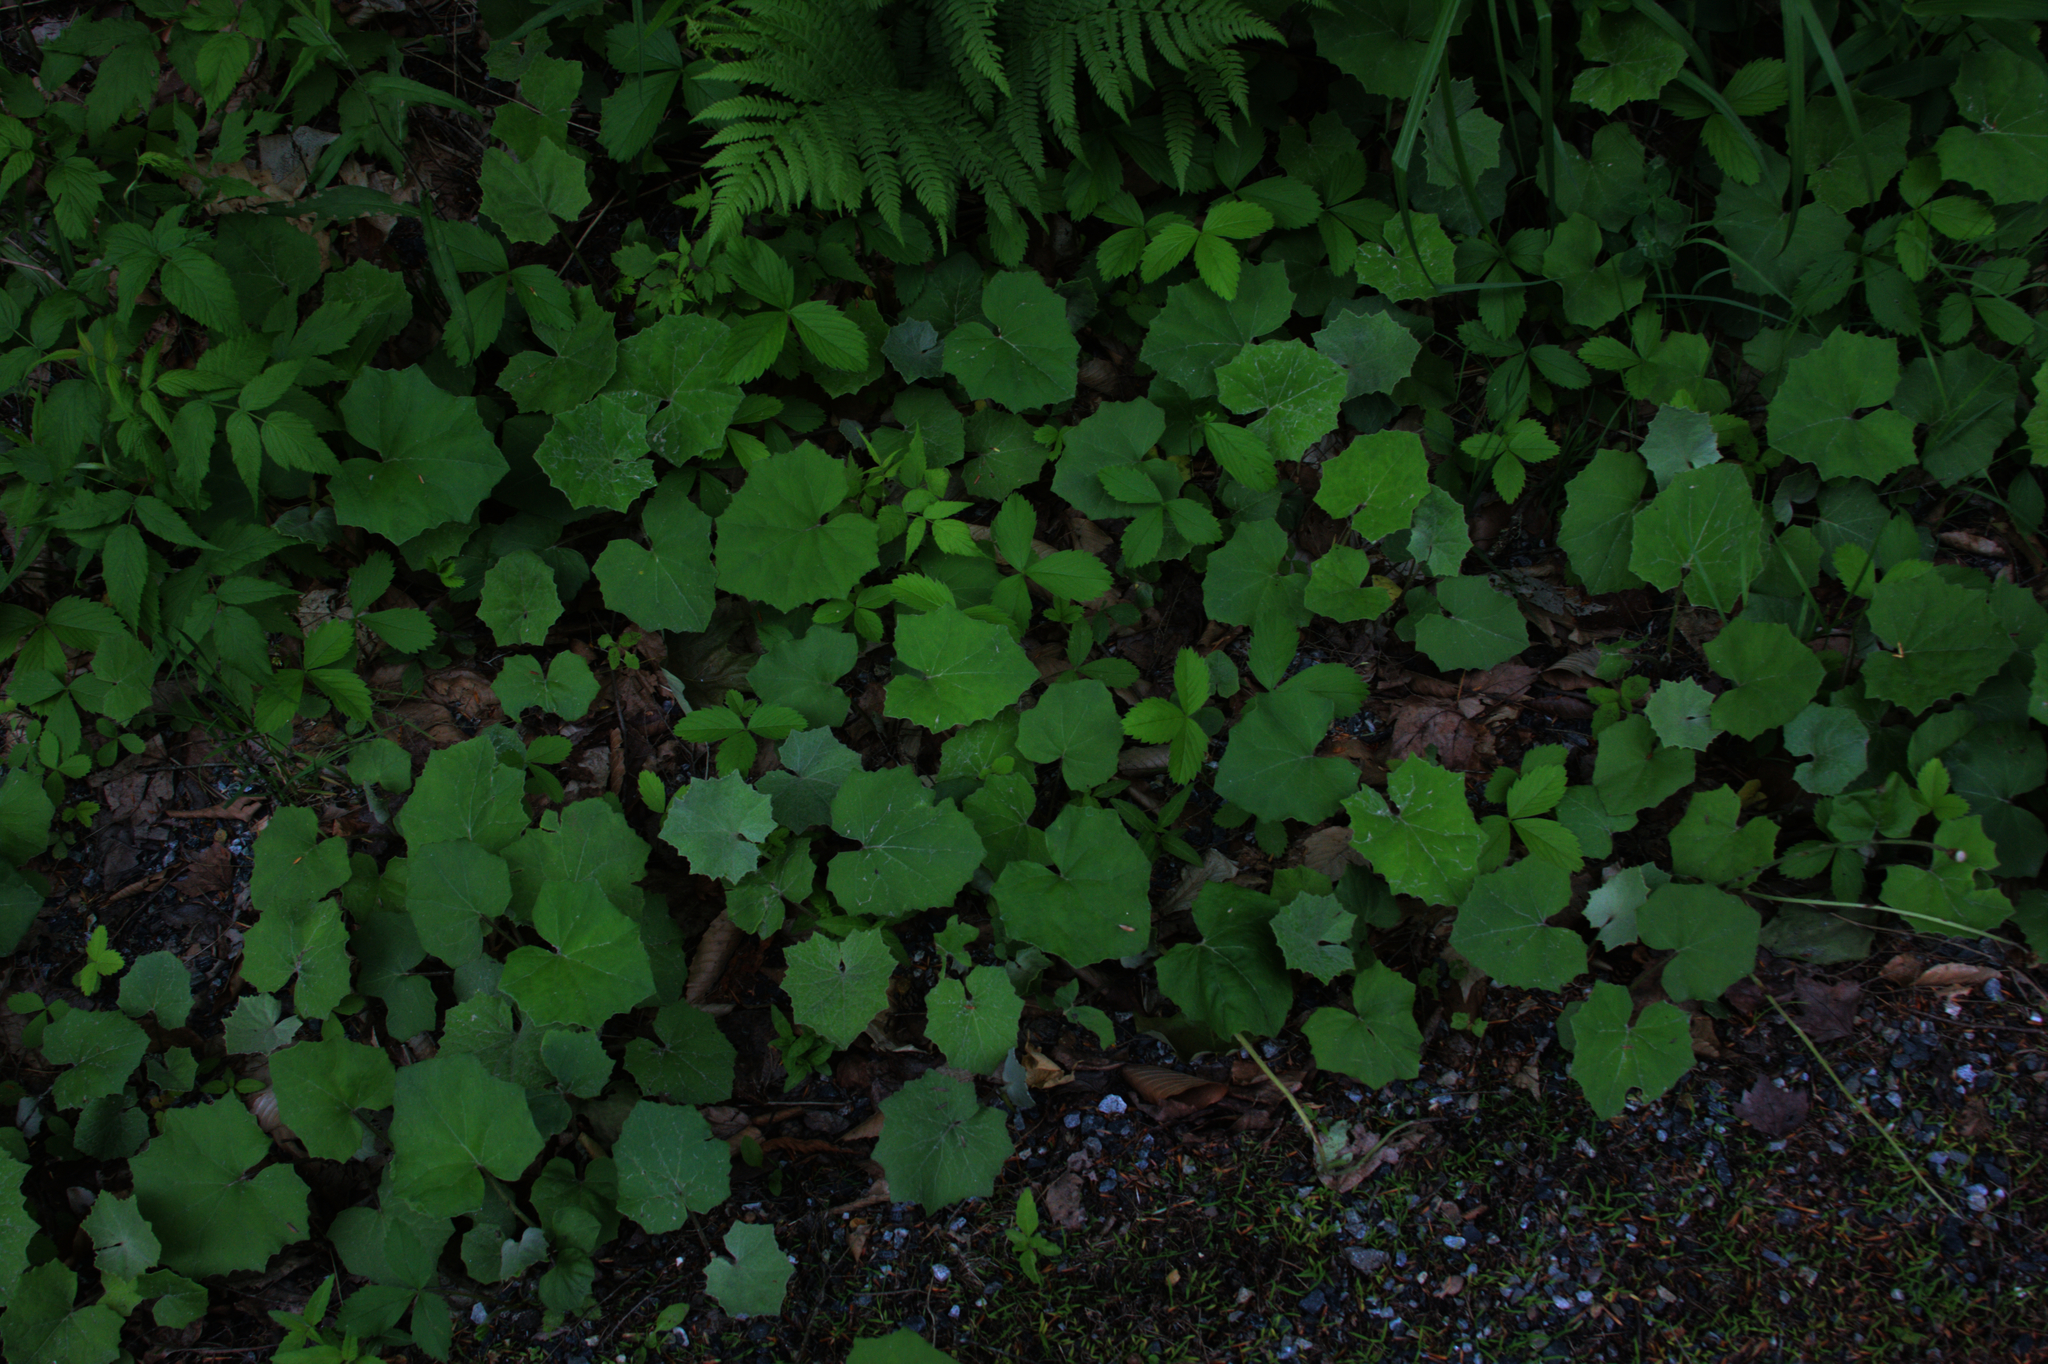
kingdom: Plantae
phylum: Tracheophyta
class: Magnoliopsida
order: Asterales
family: Asteraceae
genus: Tussilago
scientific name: Tussilago farfara
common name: Coltsfoot
